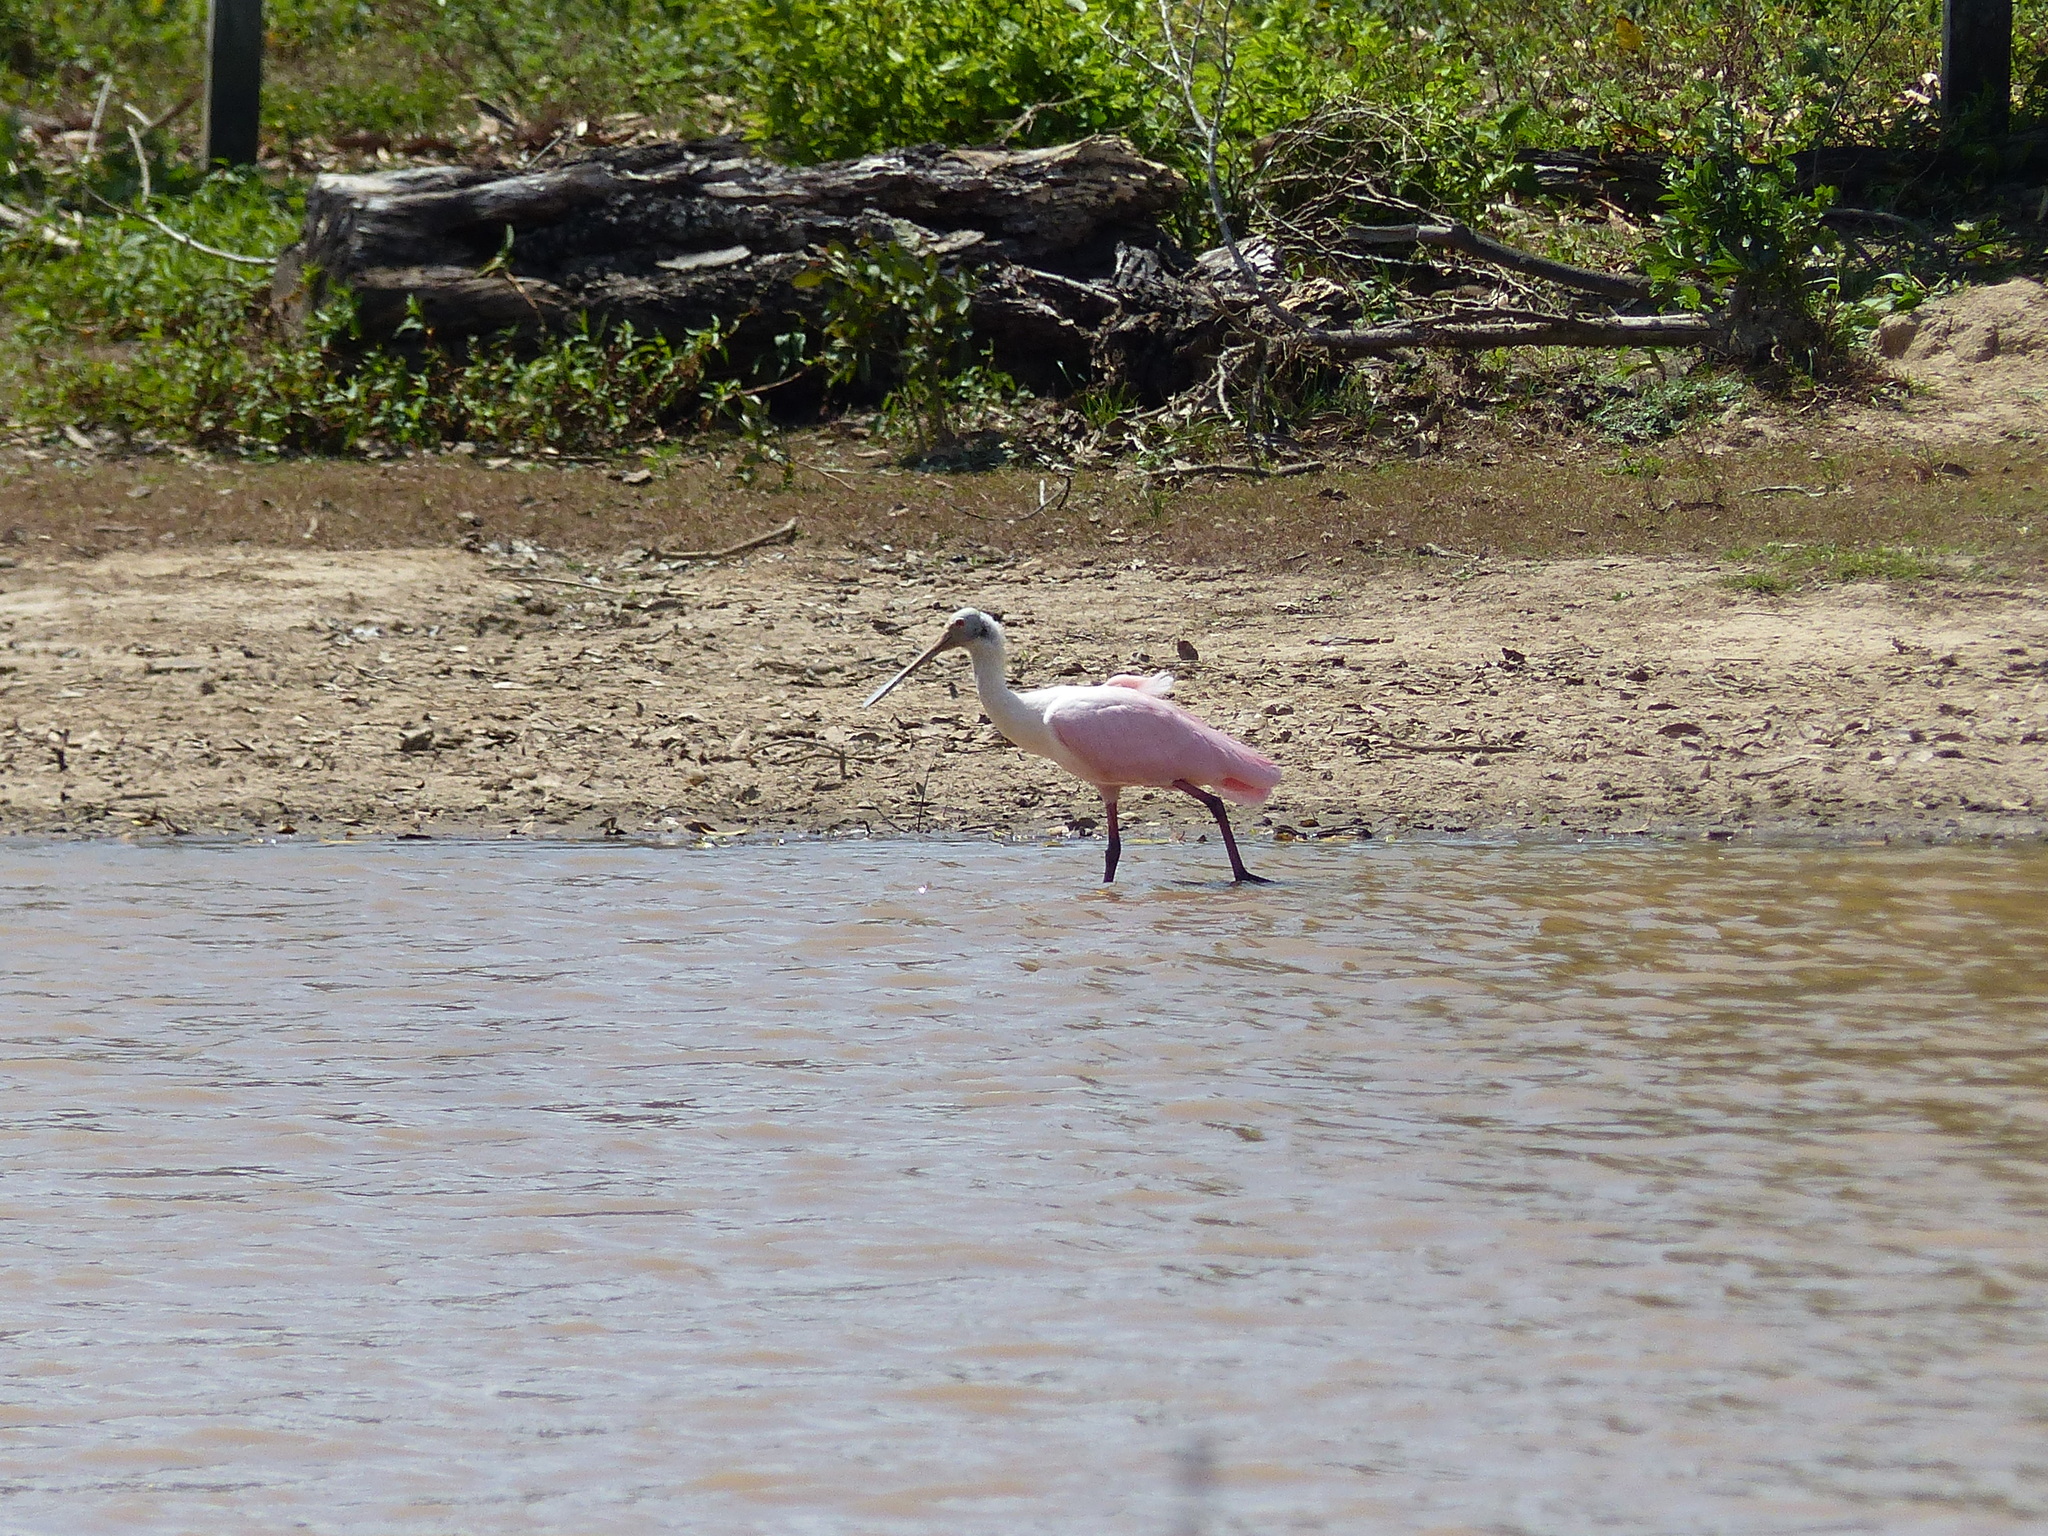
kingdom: Animalia
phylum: Chordata
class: Aves
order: Pelecaniformes
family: Threskiornithidae
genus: Platalea
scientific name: Platalea ajaja
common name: Roseate spoonbill
